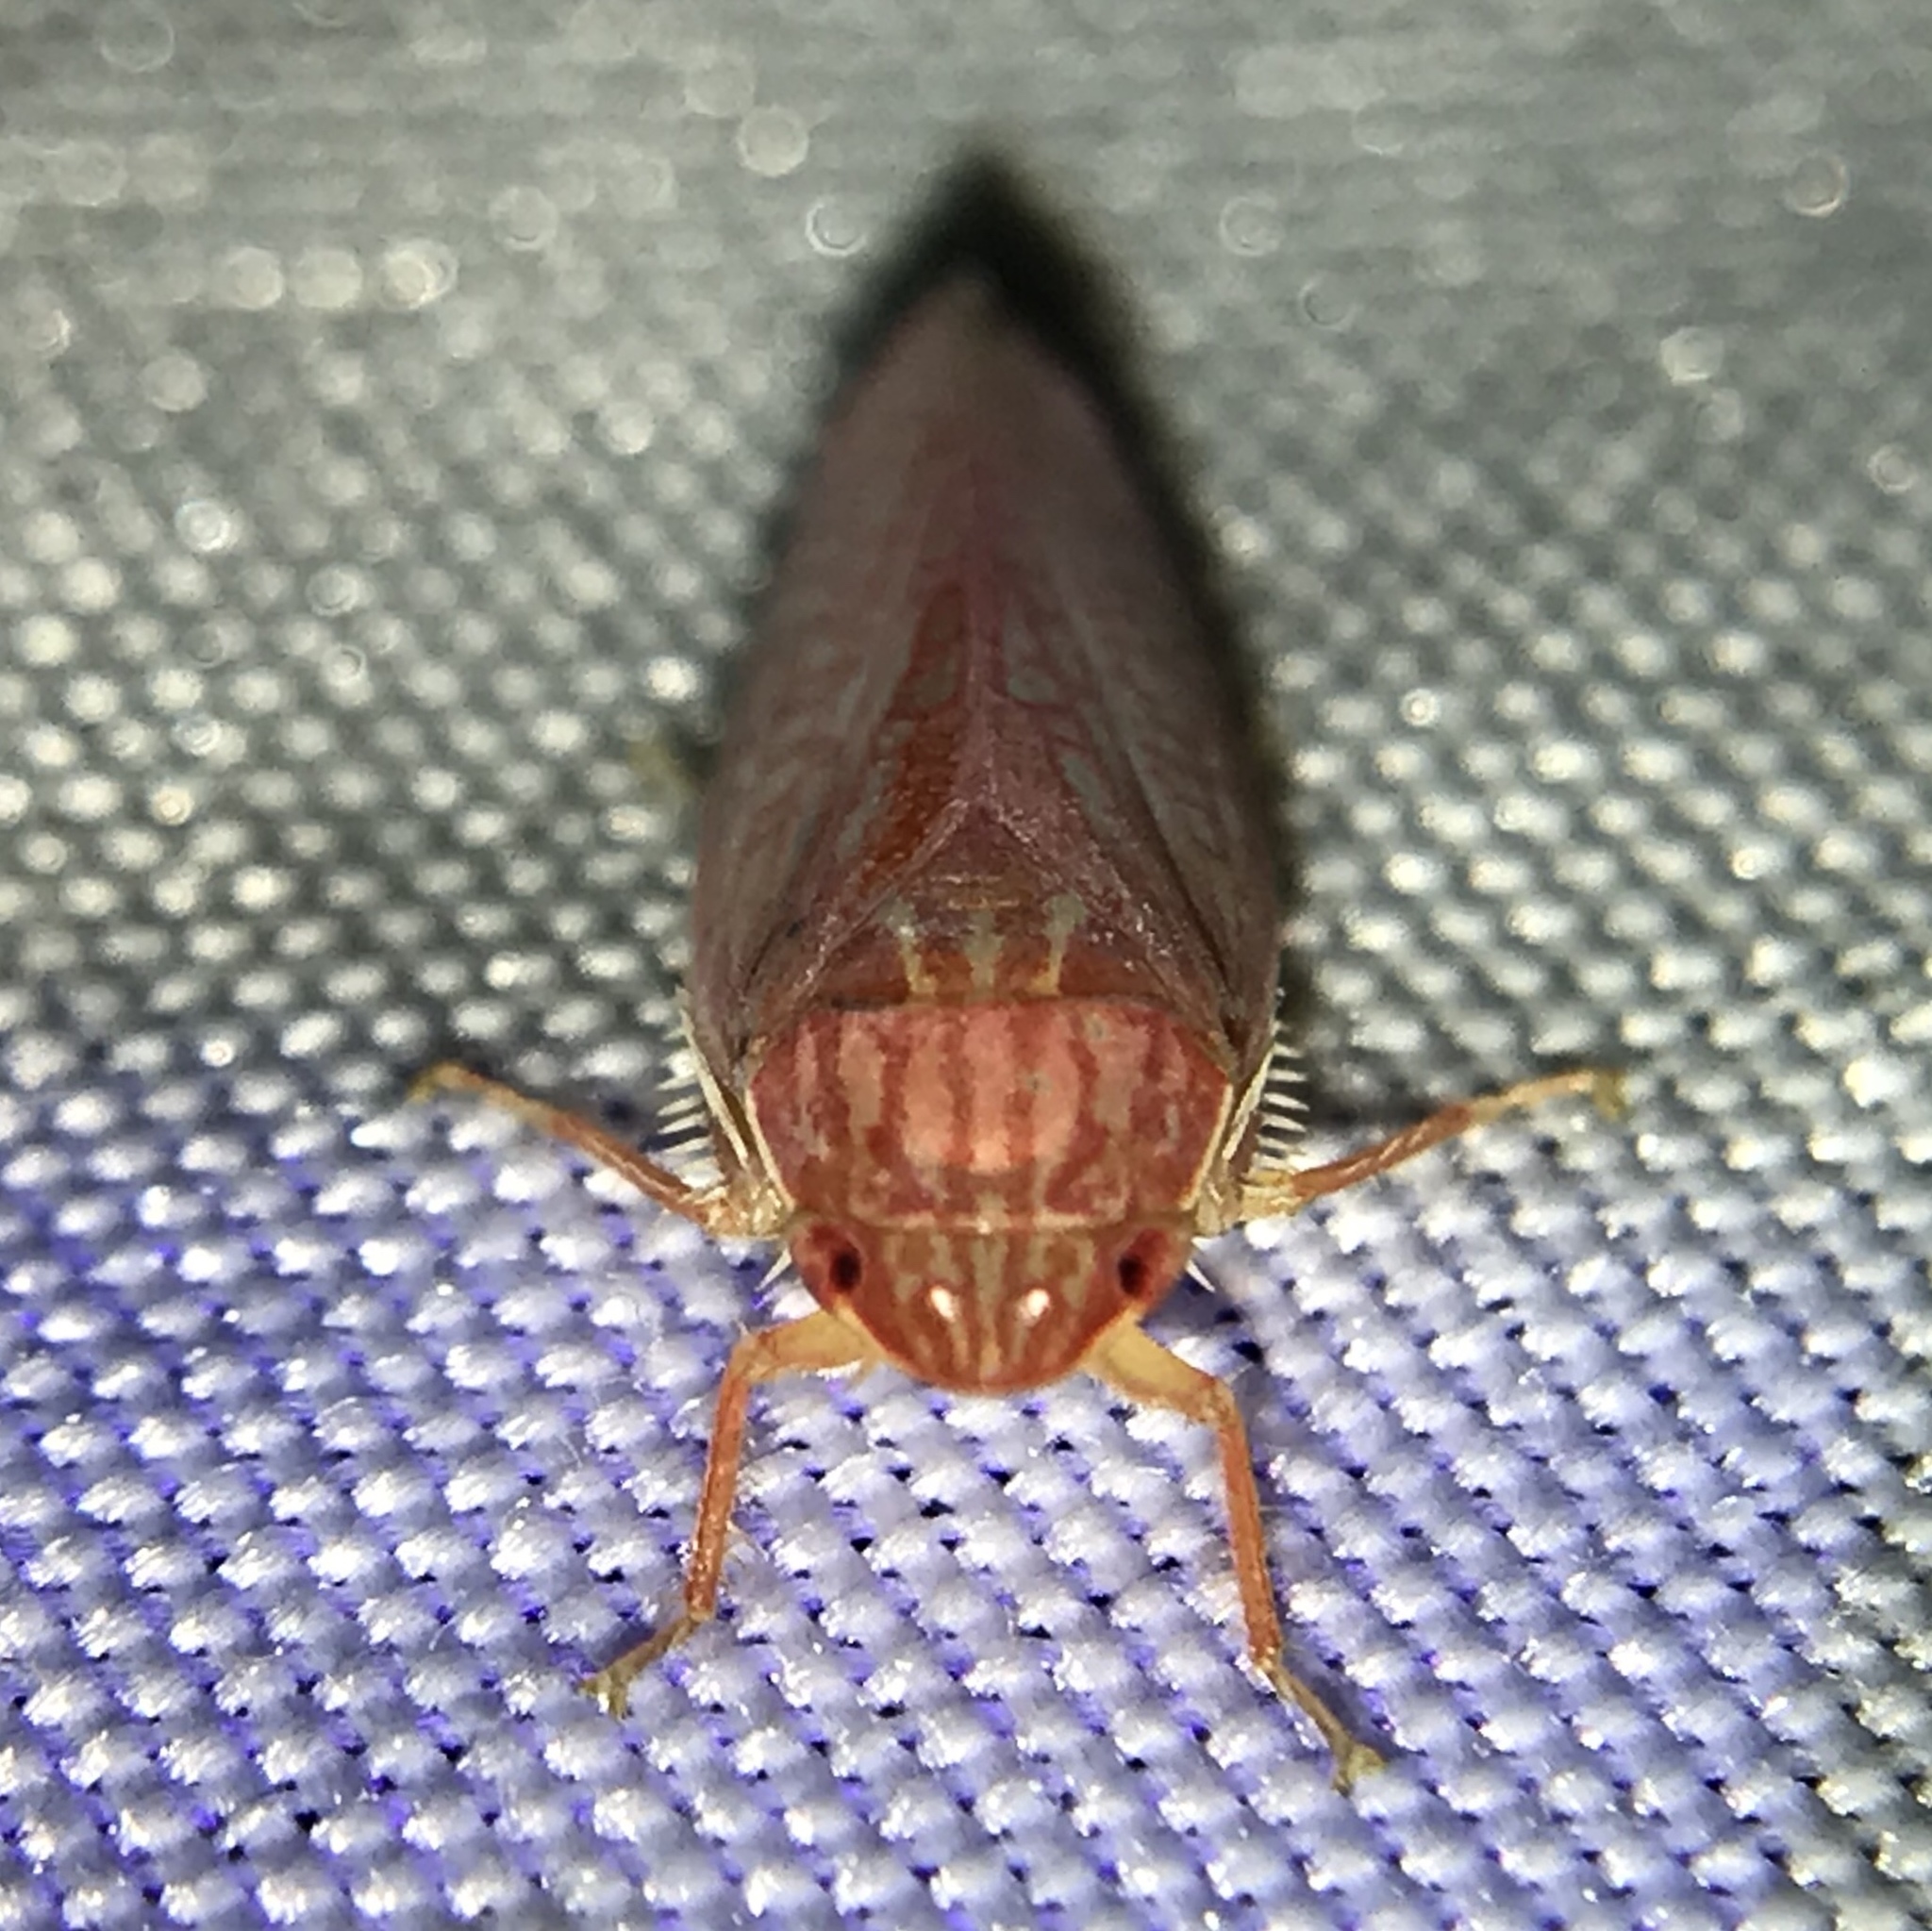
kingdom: Animalia
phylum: Arthropoda
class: Insecta
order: Hemiptera
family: Cicadellidae
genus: Gyponana
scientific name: Gyponana gladia
